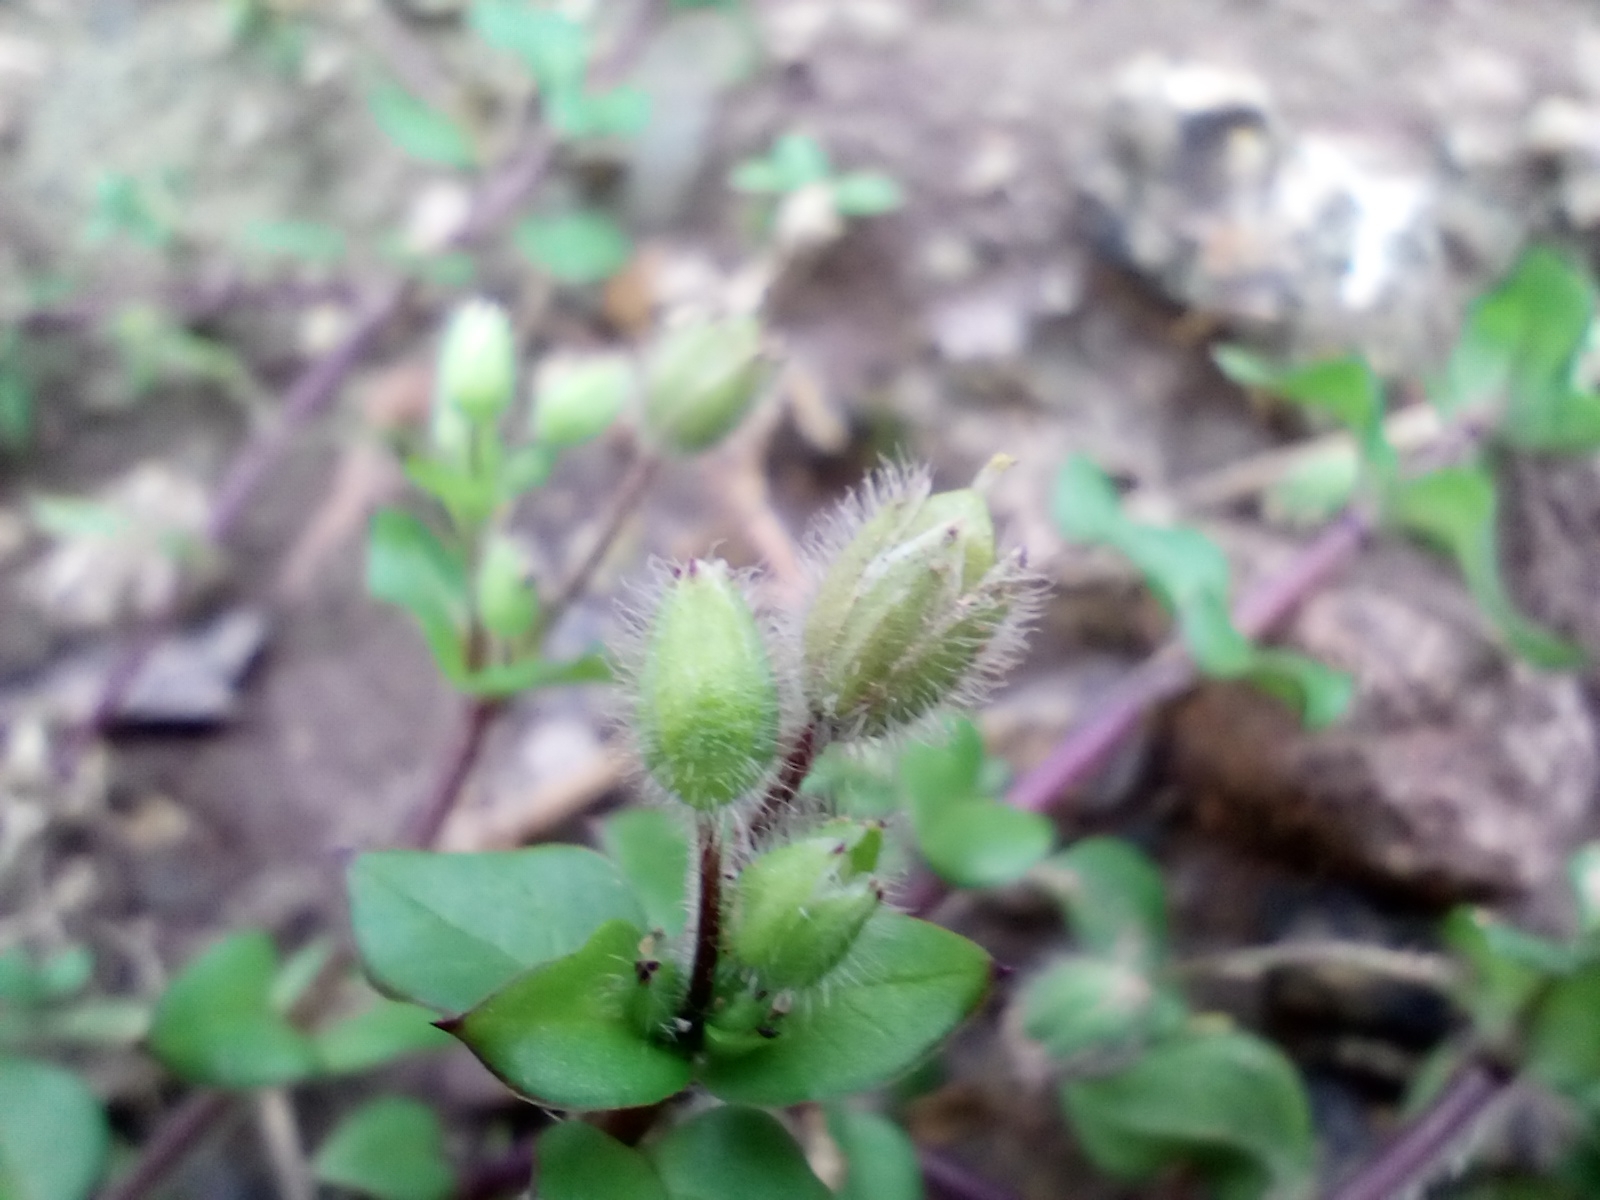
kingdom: Plantae
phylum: Tracheophyta
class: Magnoliopsida
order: Caryophyllales
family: Caryophyllaceae
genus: Stellaria
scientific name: Stellaria media
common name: Common chickweed
